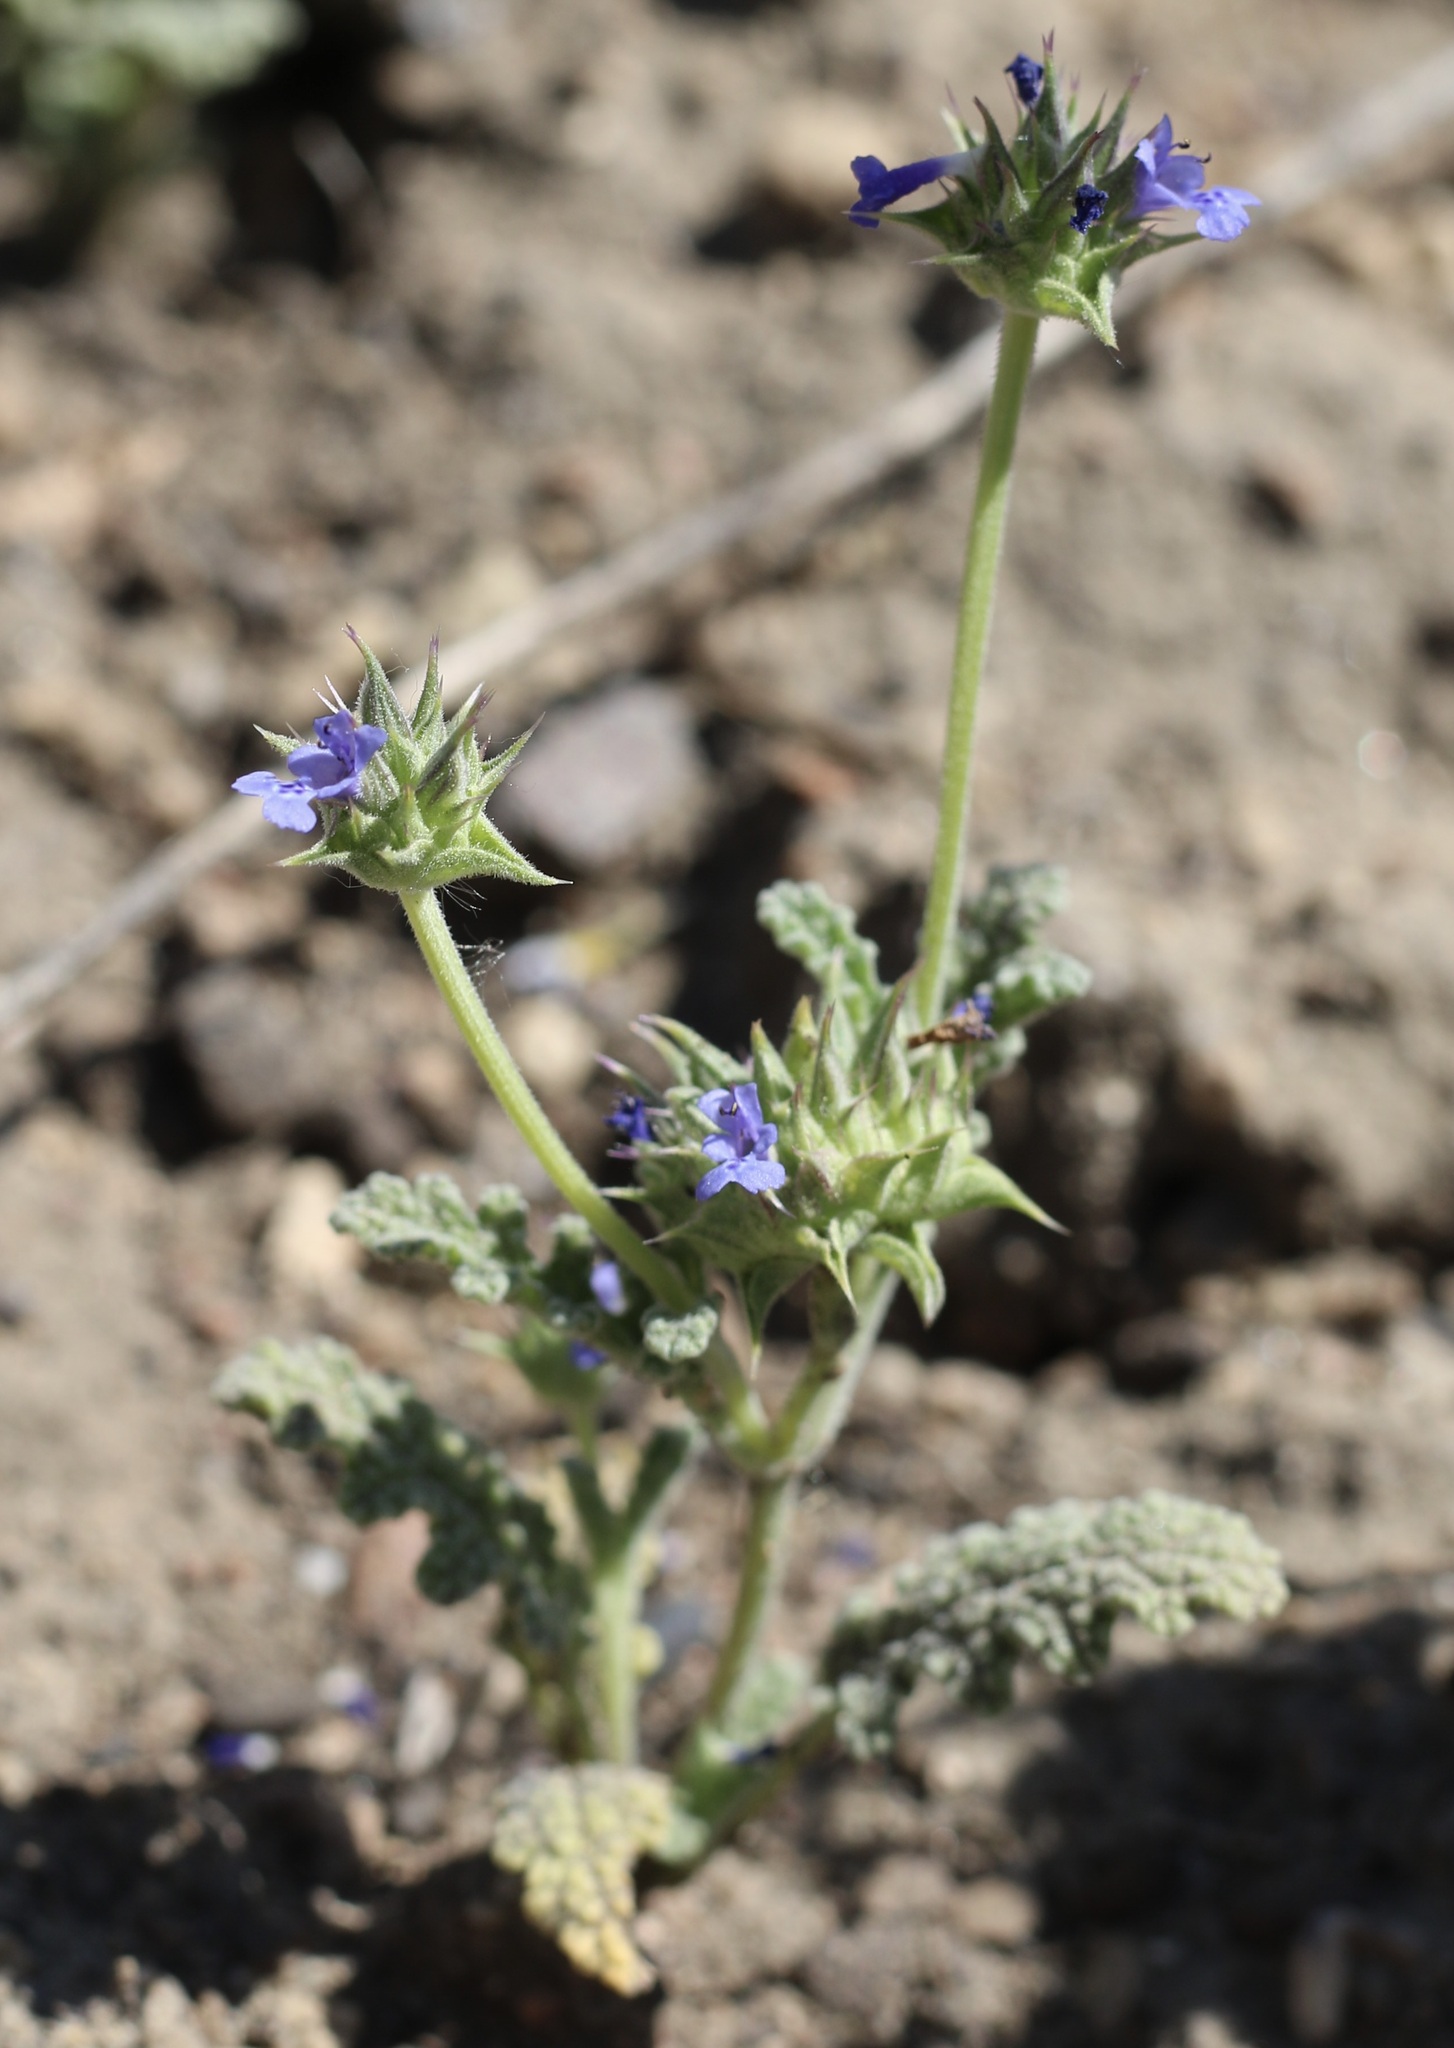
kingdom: Plantae
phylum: Tracheophyta
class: Magnoliopsida
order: Lamiales
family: Lamiaceae
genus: Salvia
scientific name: Salvia columbariae
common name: Chia
